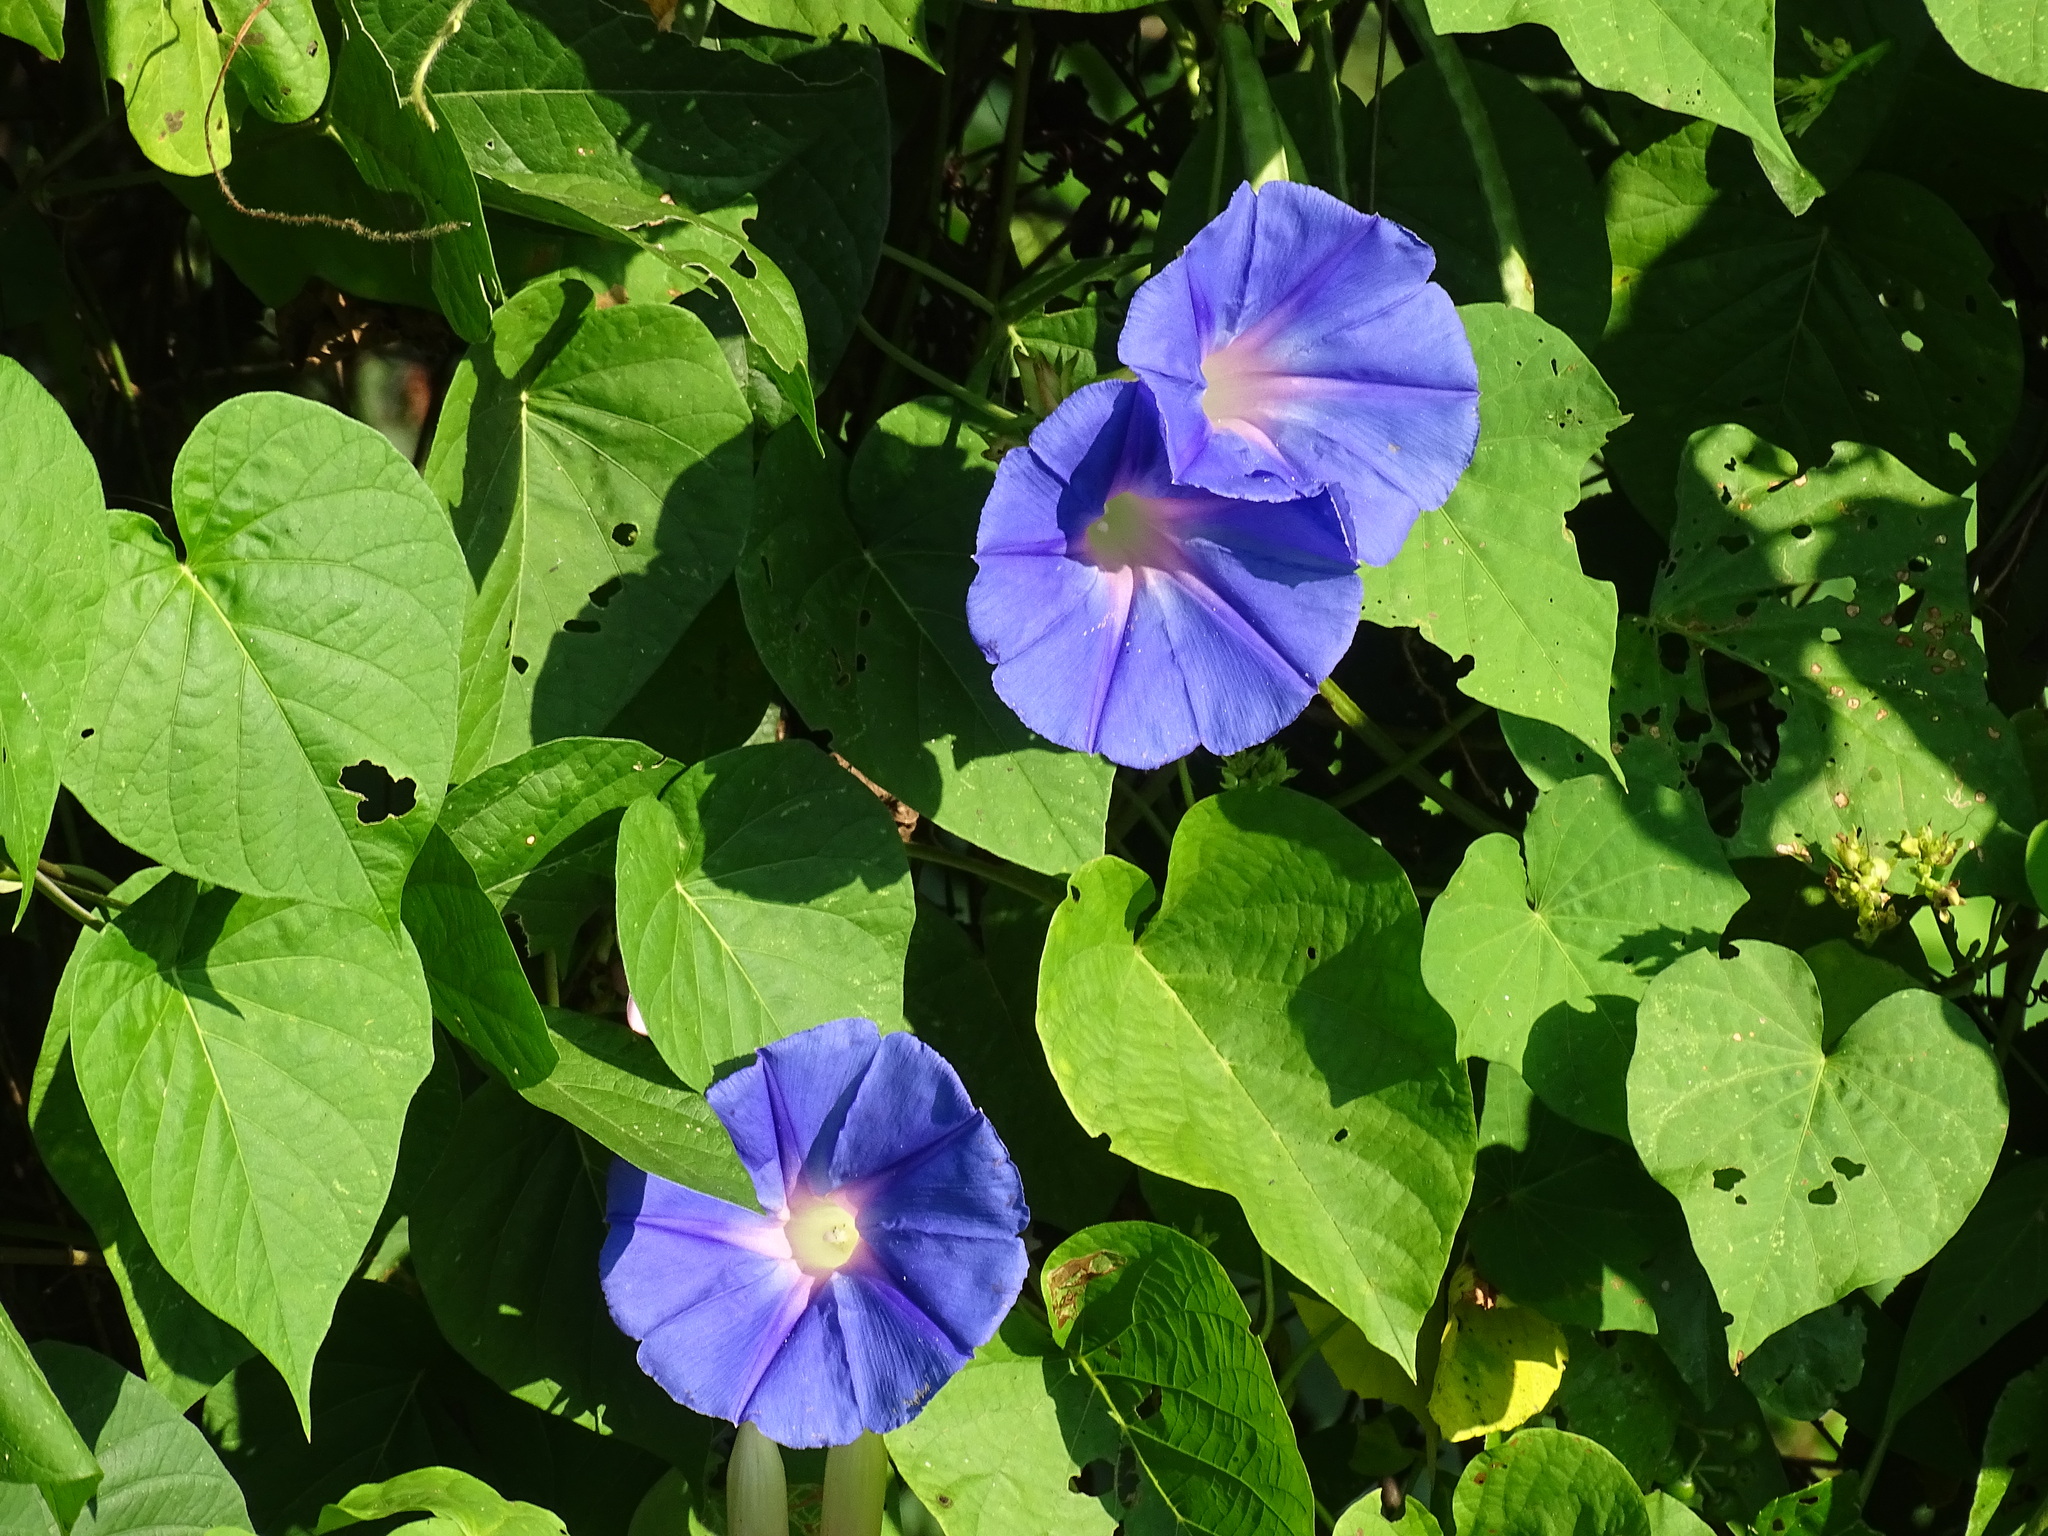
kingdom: Plantae
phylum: Tracheophyta
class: Magnoliopsida
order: Solanales
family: Convolvulaceae
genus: Ipomoea
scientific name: Ipomoea indica
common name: Blue dawnflower
